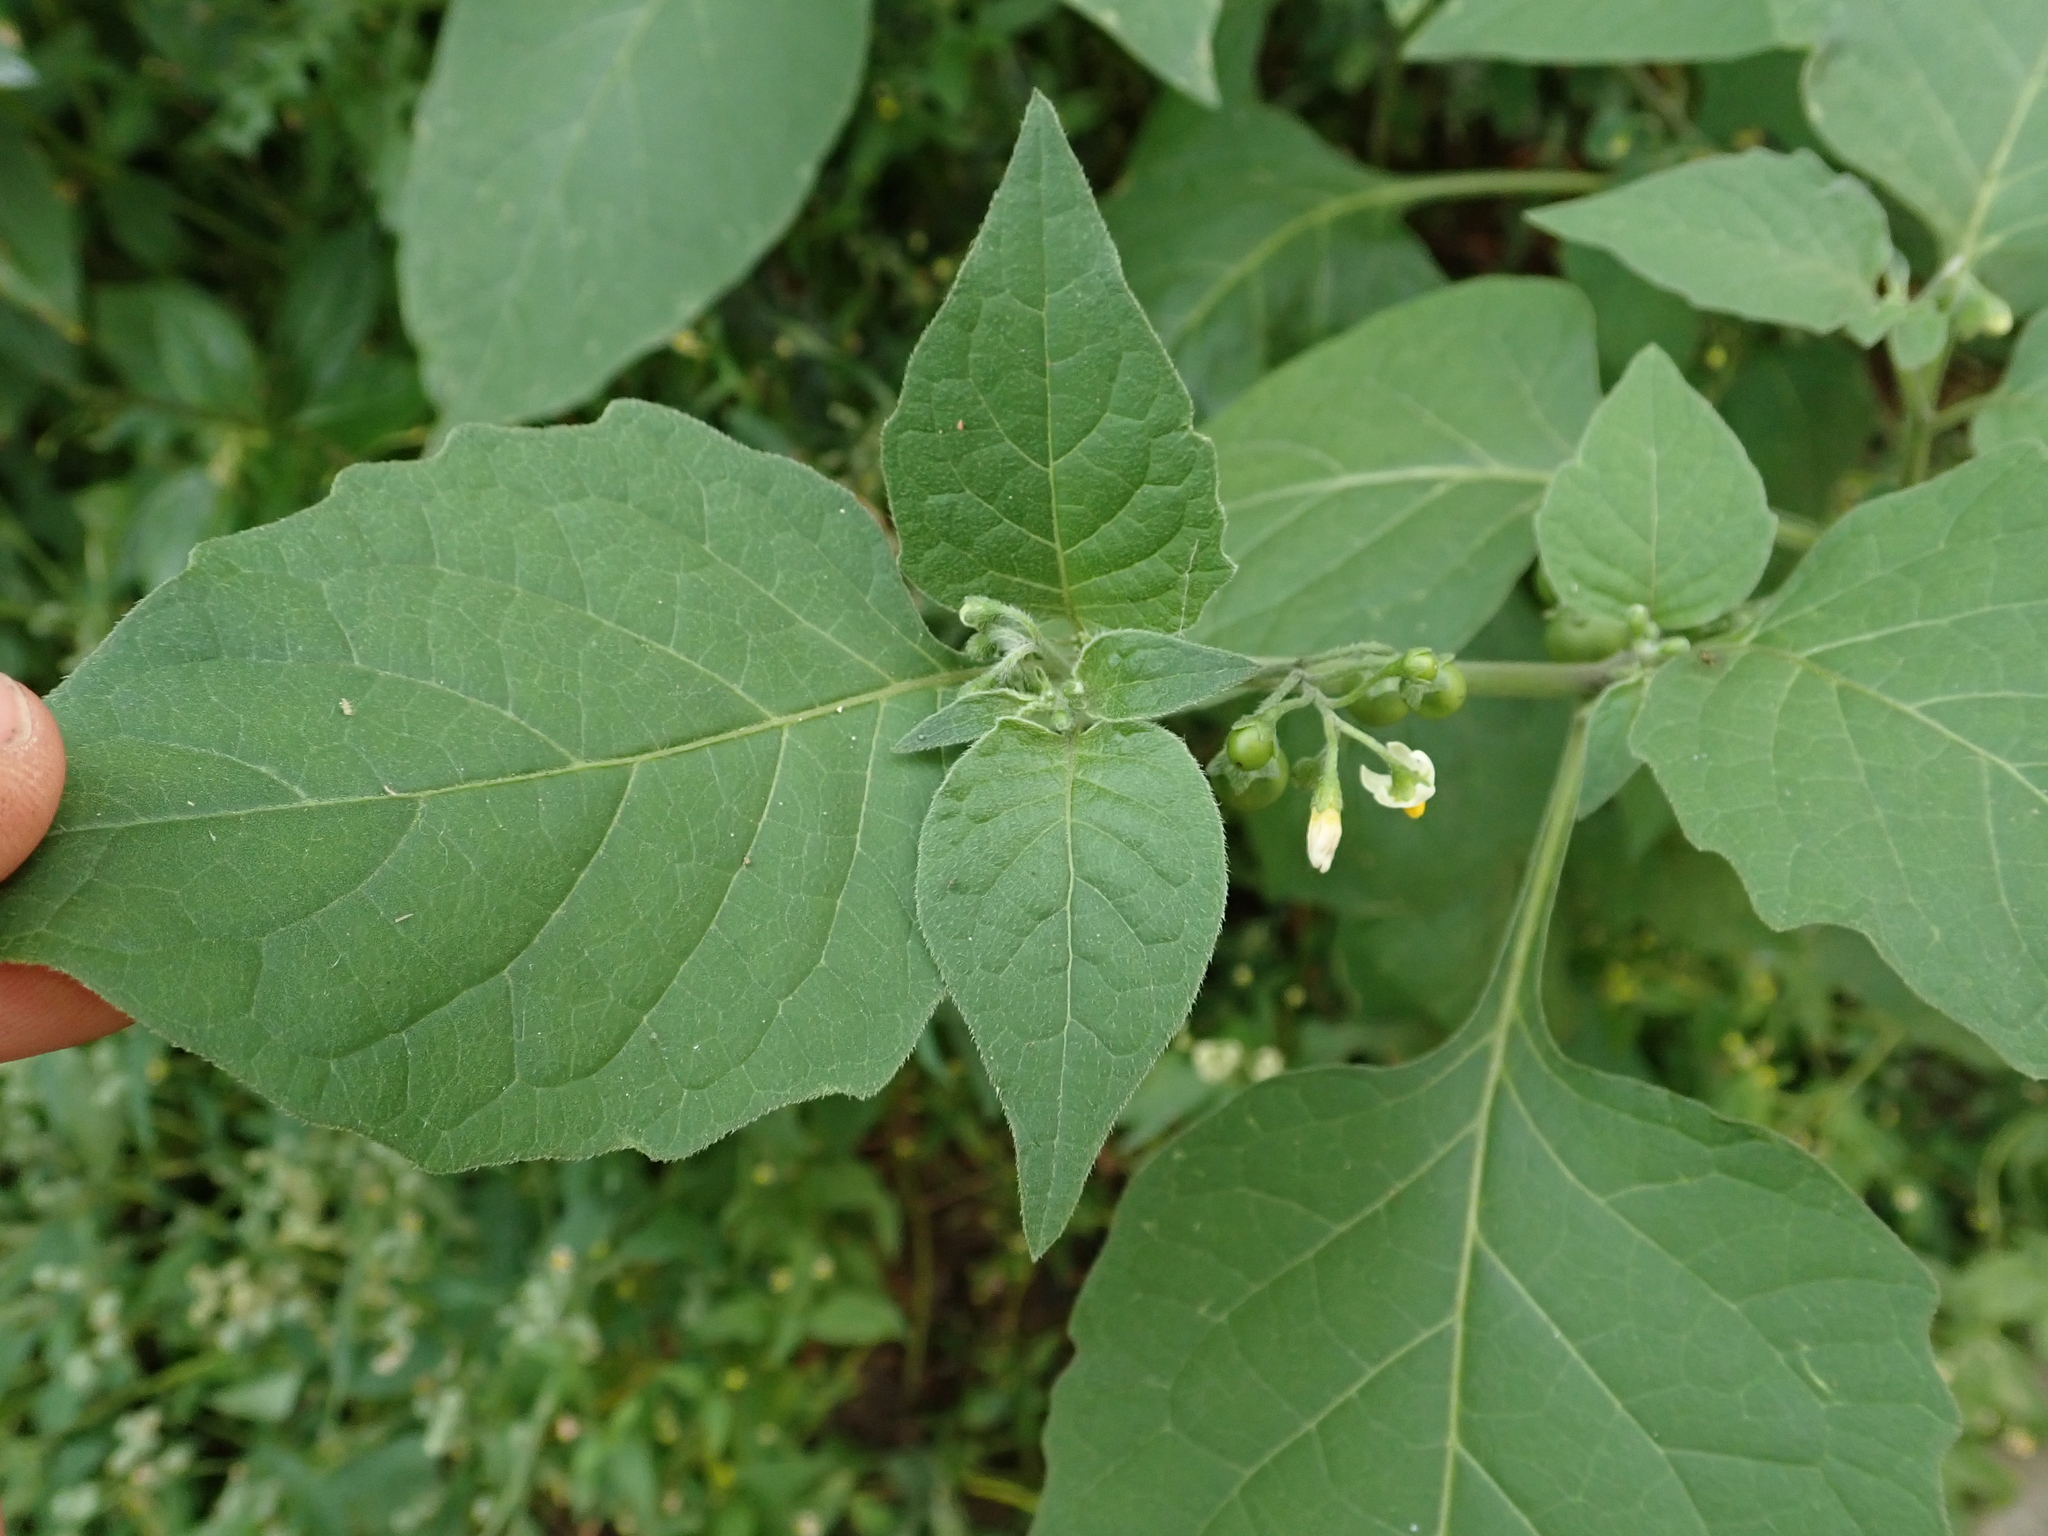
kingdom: Plantae
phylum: Tracheophyta
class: Magnoliopsida
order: Solanales
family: Solanaceae
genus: Solanum
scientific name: Solanum nigrum
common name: Black nightshade
